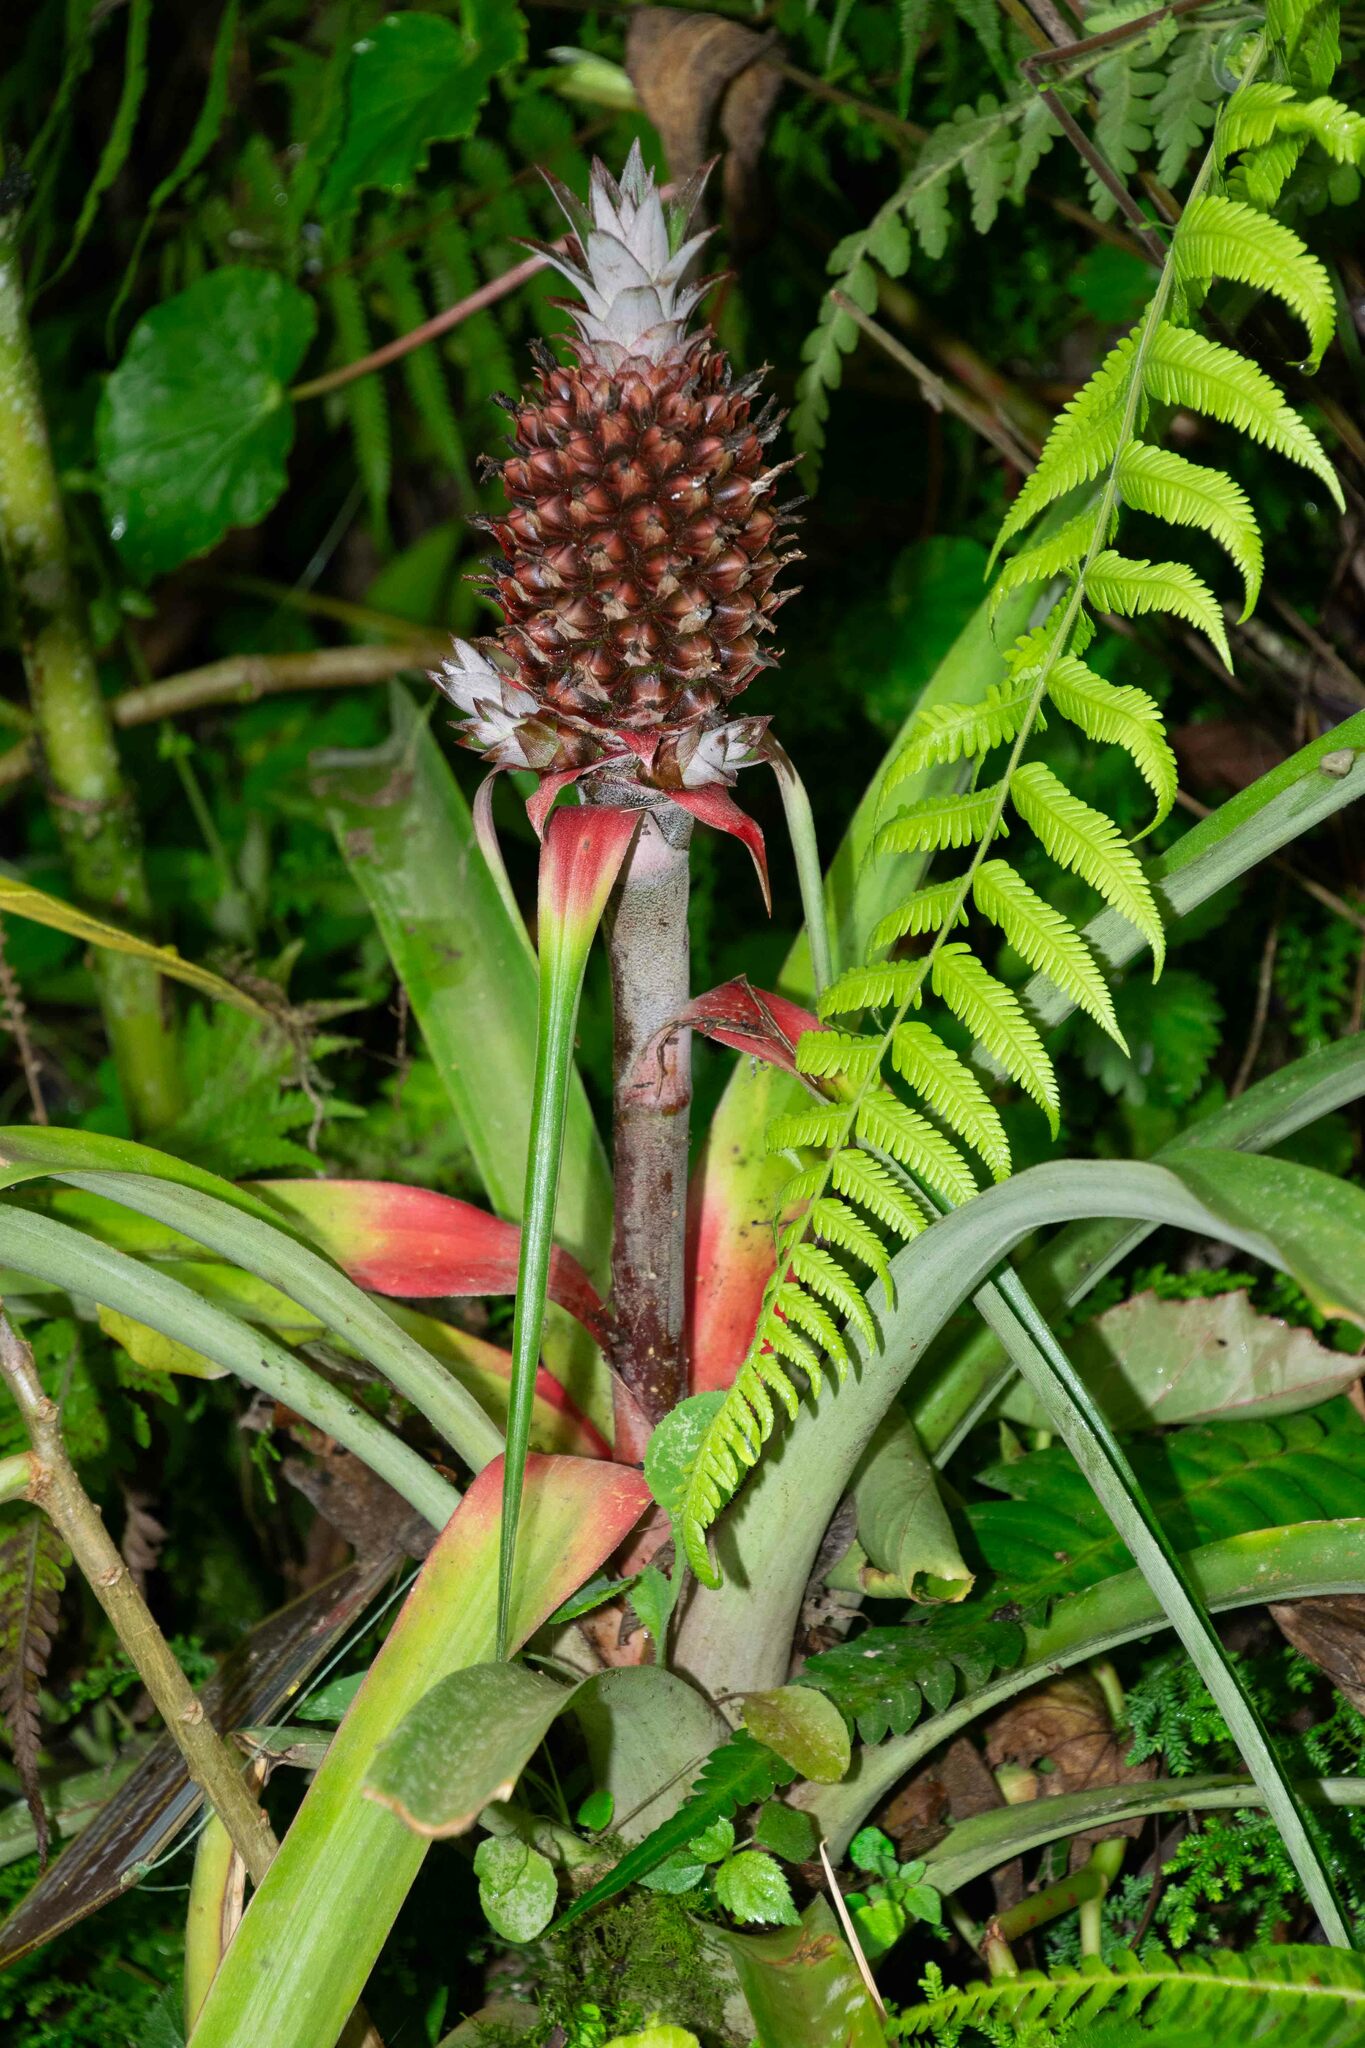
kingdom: Plantae
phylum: Tracheophyta
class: Liliopsida
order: Poales
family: Bromeliaceae
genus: Ananas
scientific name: Ananas comosus
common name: Pineapple
